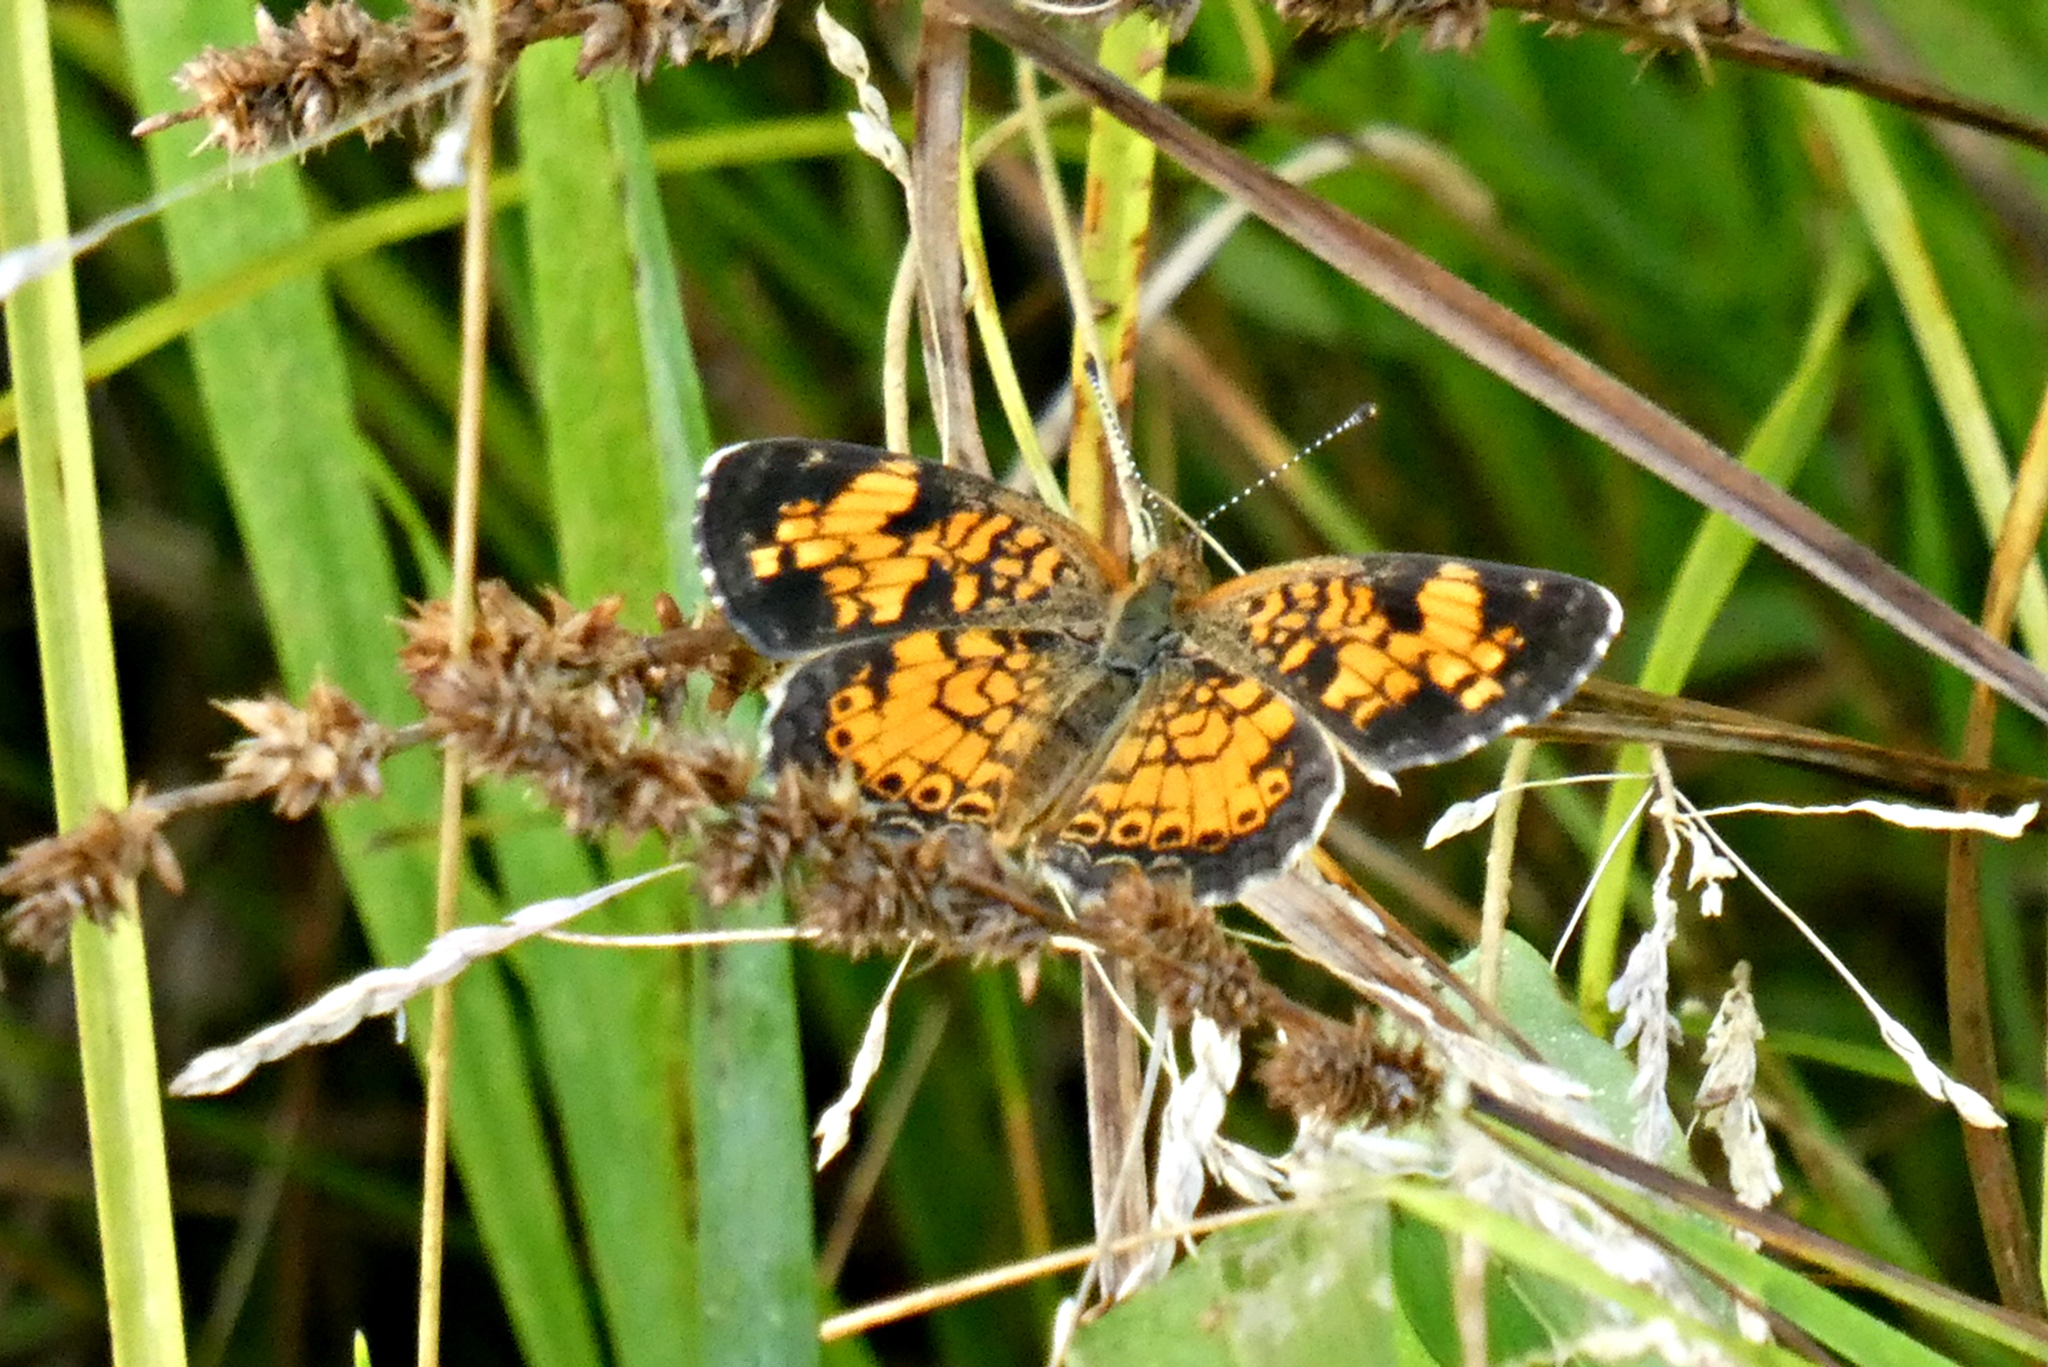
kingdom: Animalia
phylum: Arthropoda
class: Insecta
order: Lepidoptera
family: Nymphalidae
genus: Phyciodes
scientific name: Phyciodes tharos
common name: Pearl crescent
